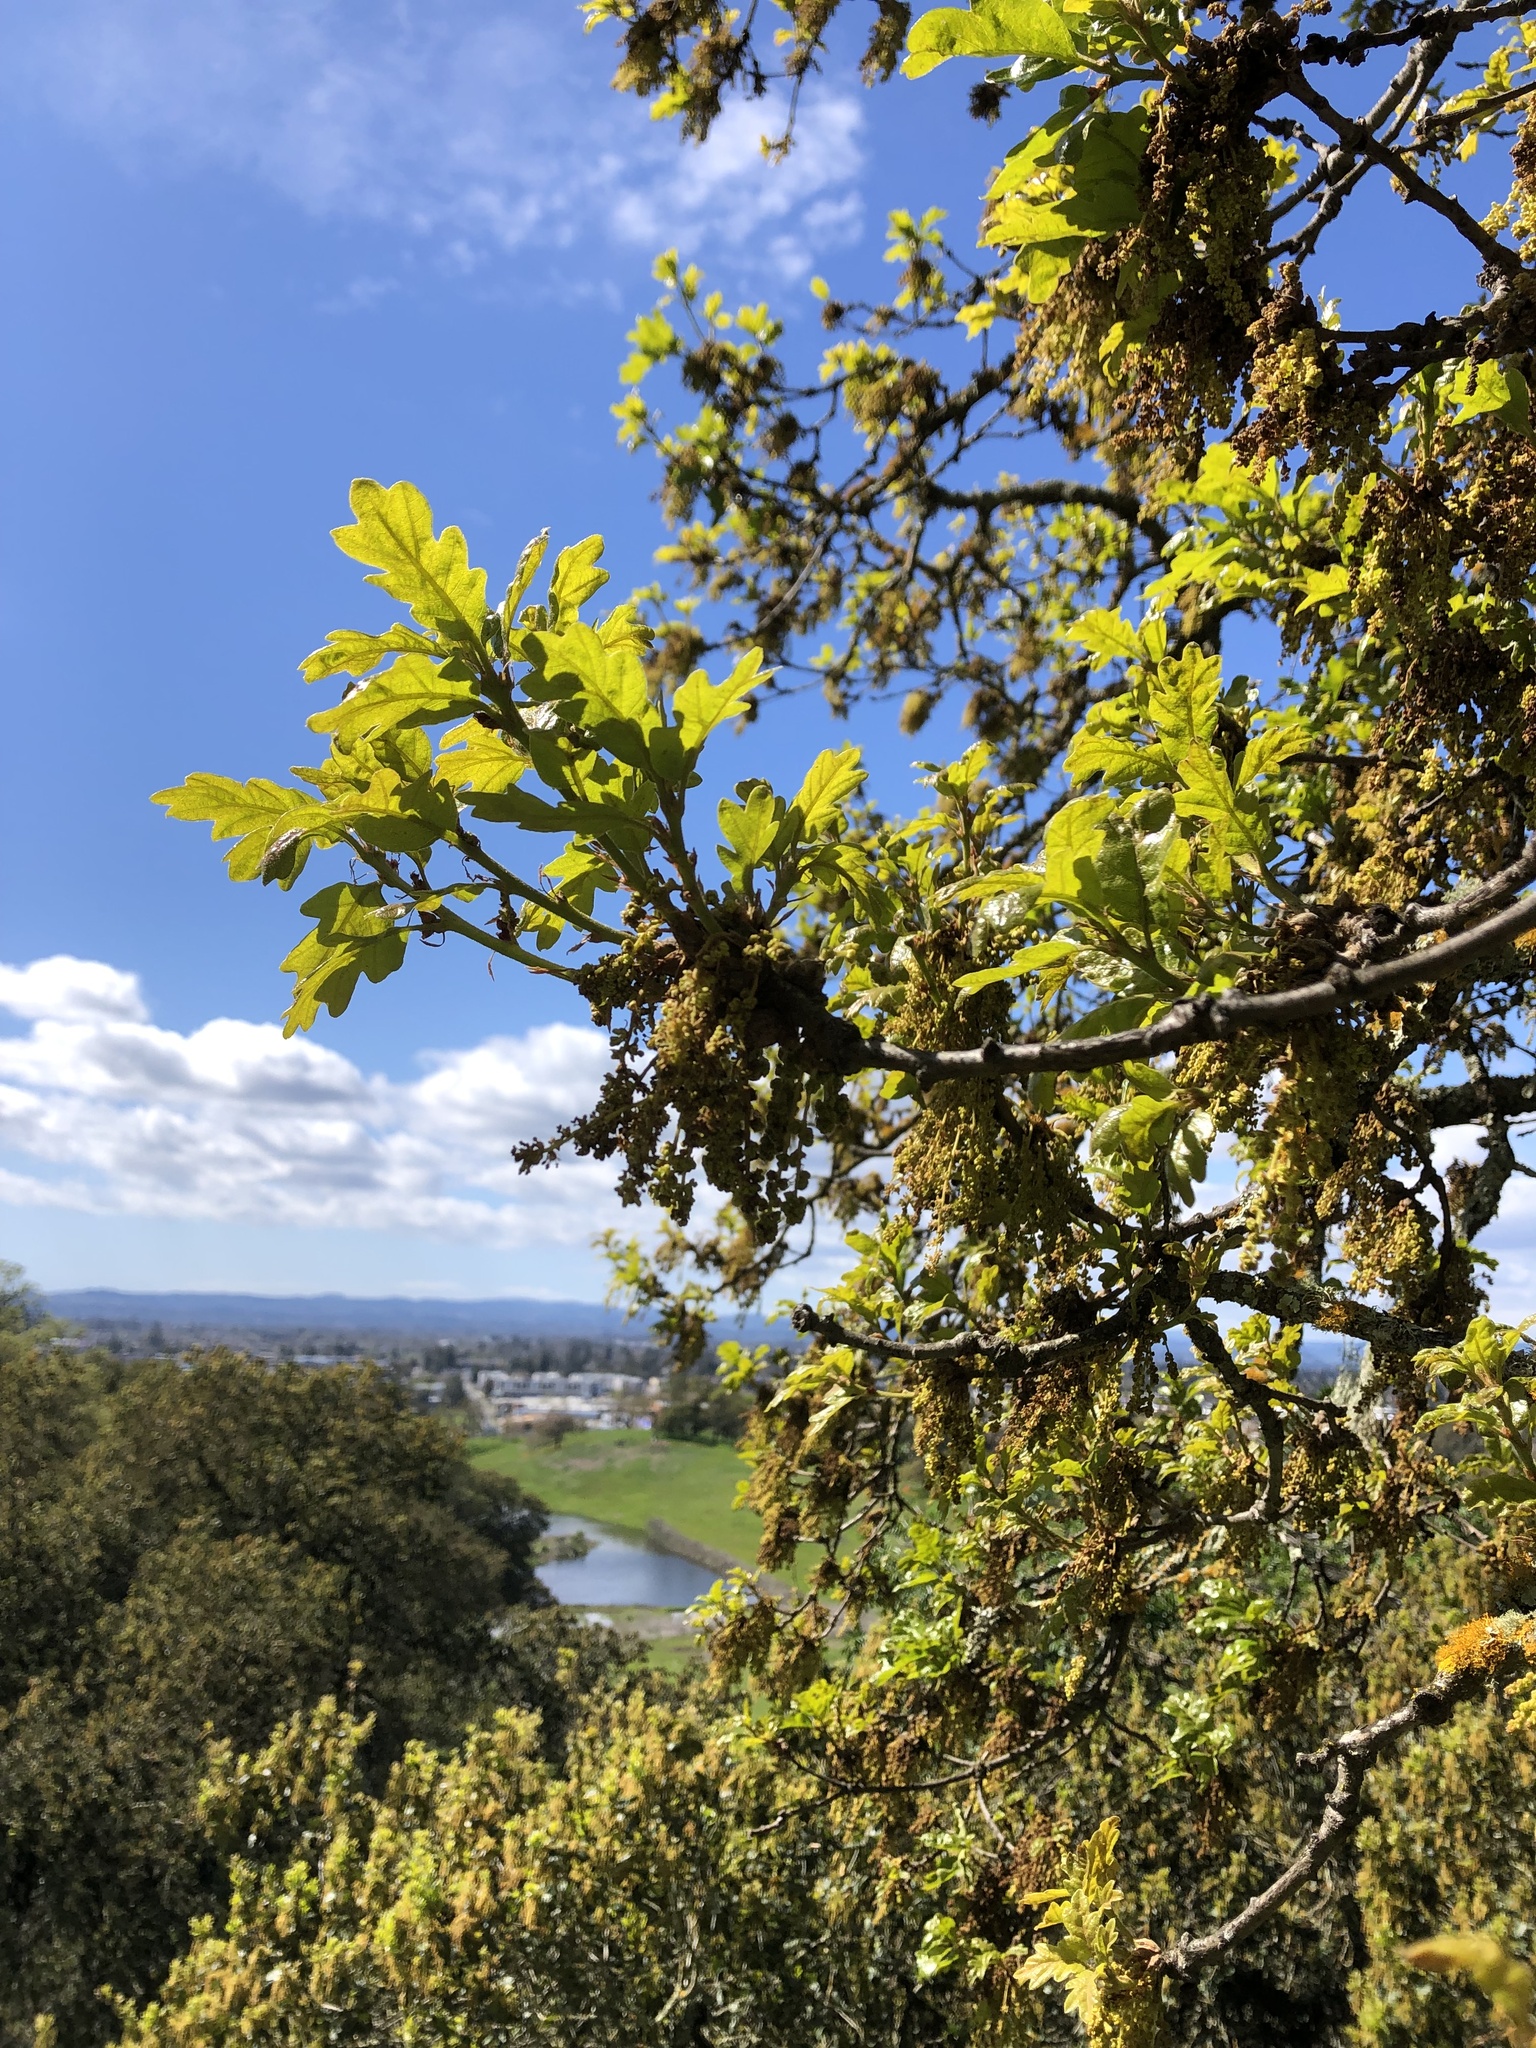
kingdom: Plantae
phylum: Tracheophyta
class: Magnoliopsida
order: Fagales
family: Fagaceae
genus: Quercus
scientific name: Quercus garryana
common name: Garry oak
